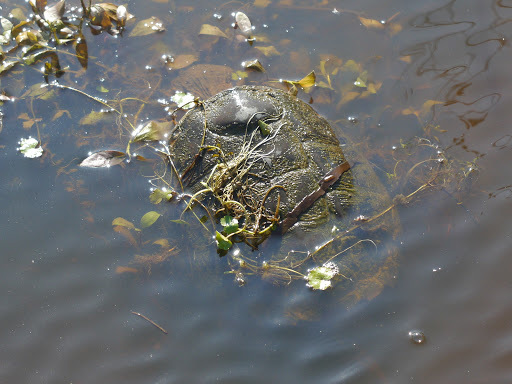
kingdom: Animalia
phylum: Chordata
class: Testudines
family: Chelydridae
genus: Chelydra
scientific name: Chelydra serpentina
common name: Common snapping turtle
